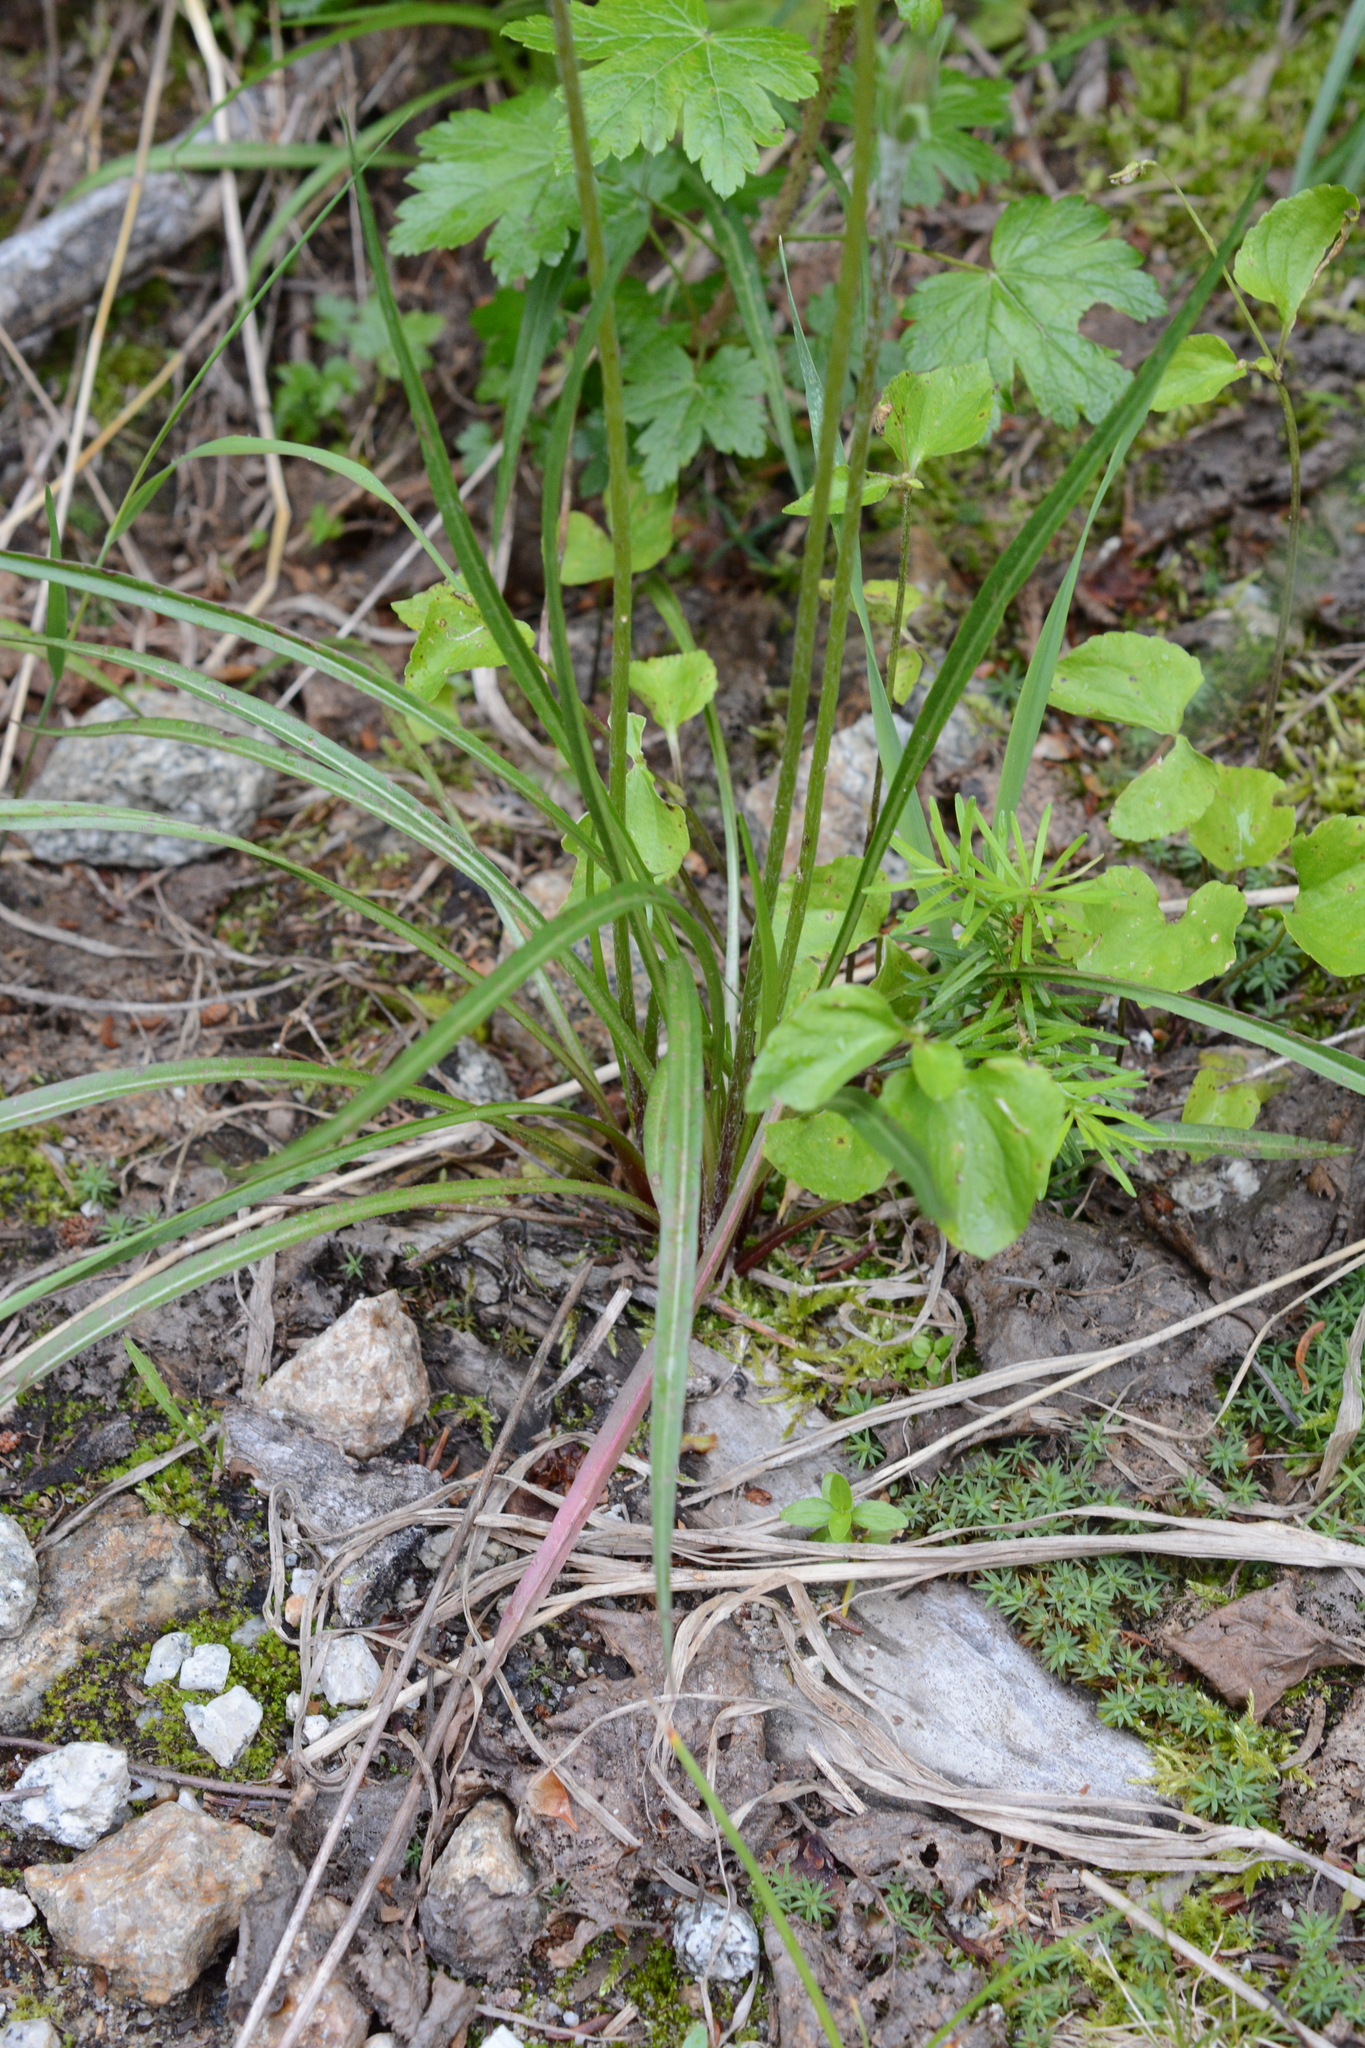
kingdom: Plantae
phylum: Tracheophyta
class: Magnoliopsida
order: Asterales
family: Asteraceae
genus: Agoseris
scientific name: Agoseris aurantiaca
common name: Mountain agoseris
